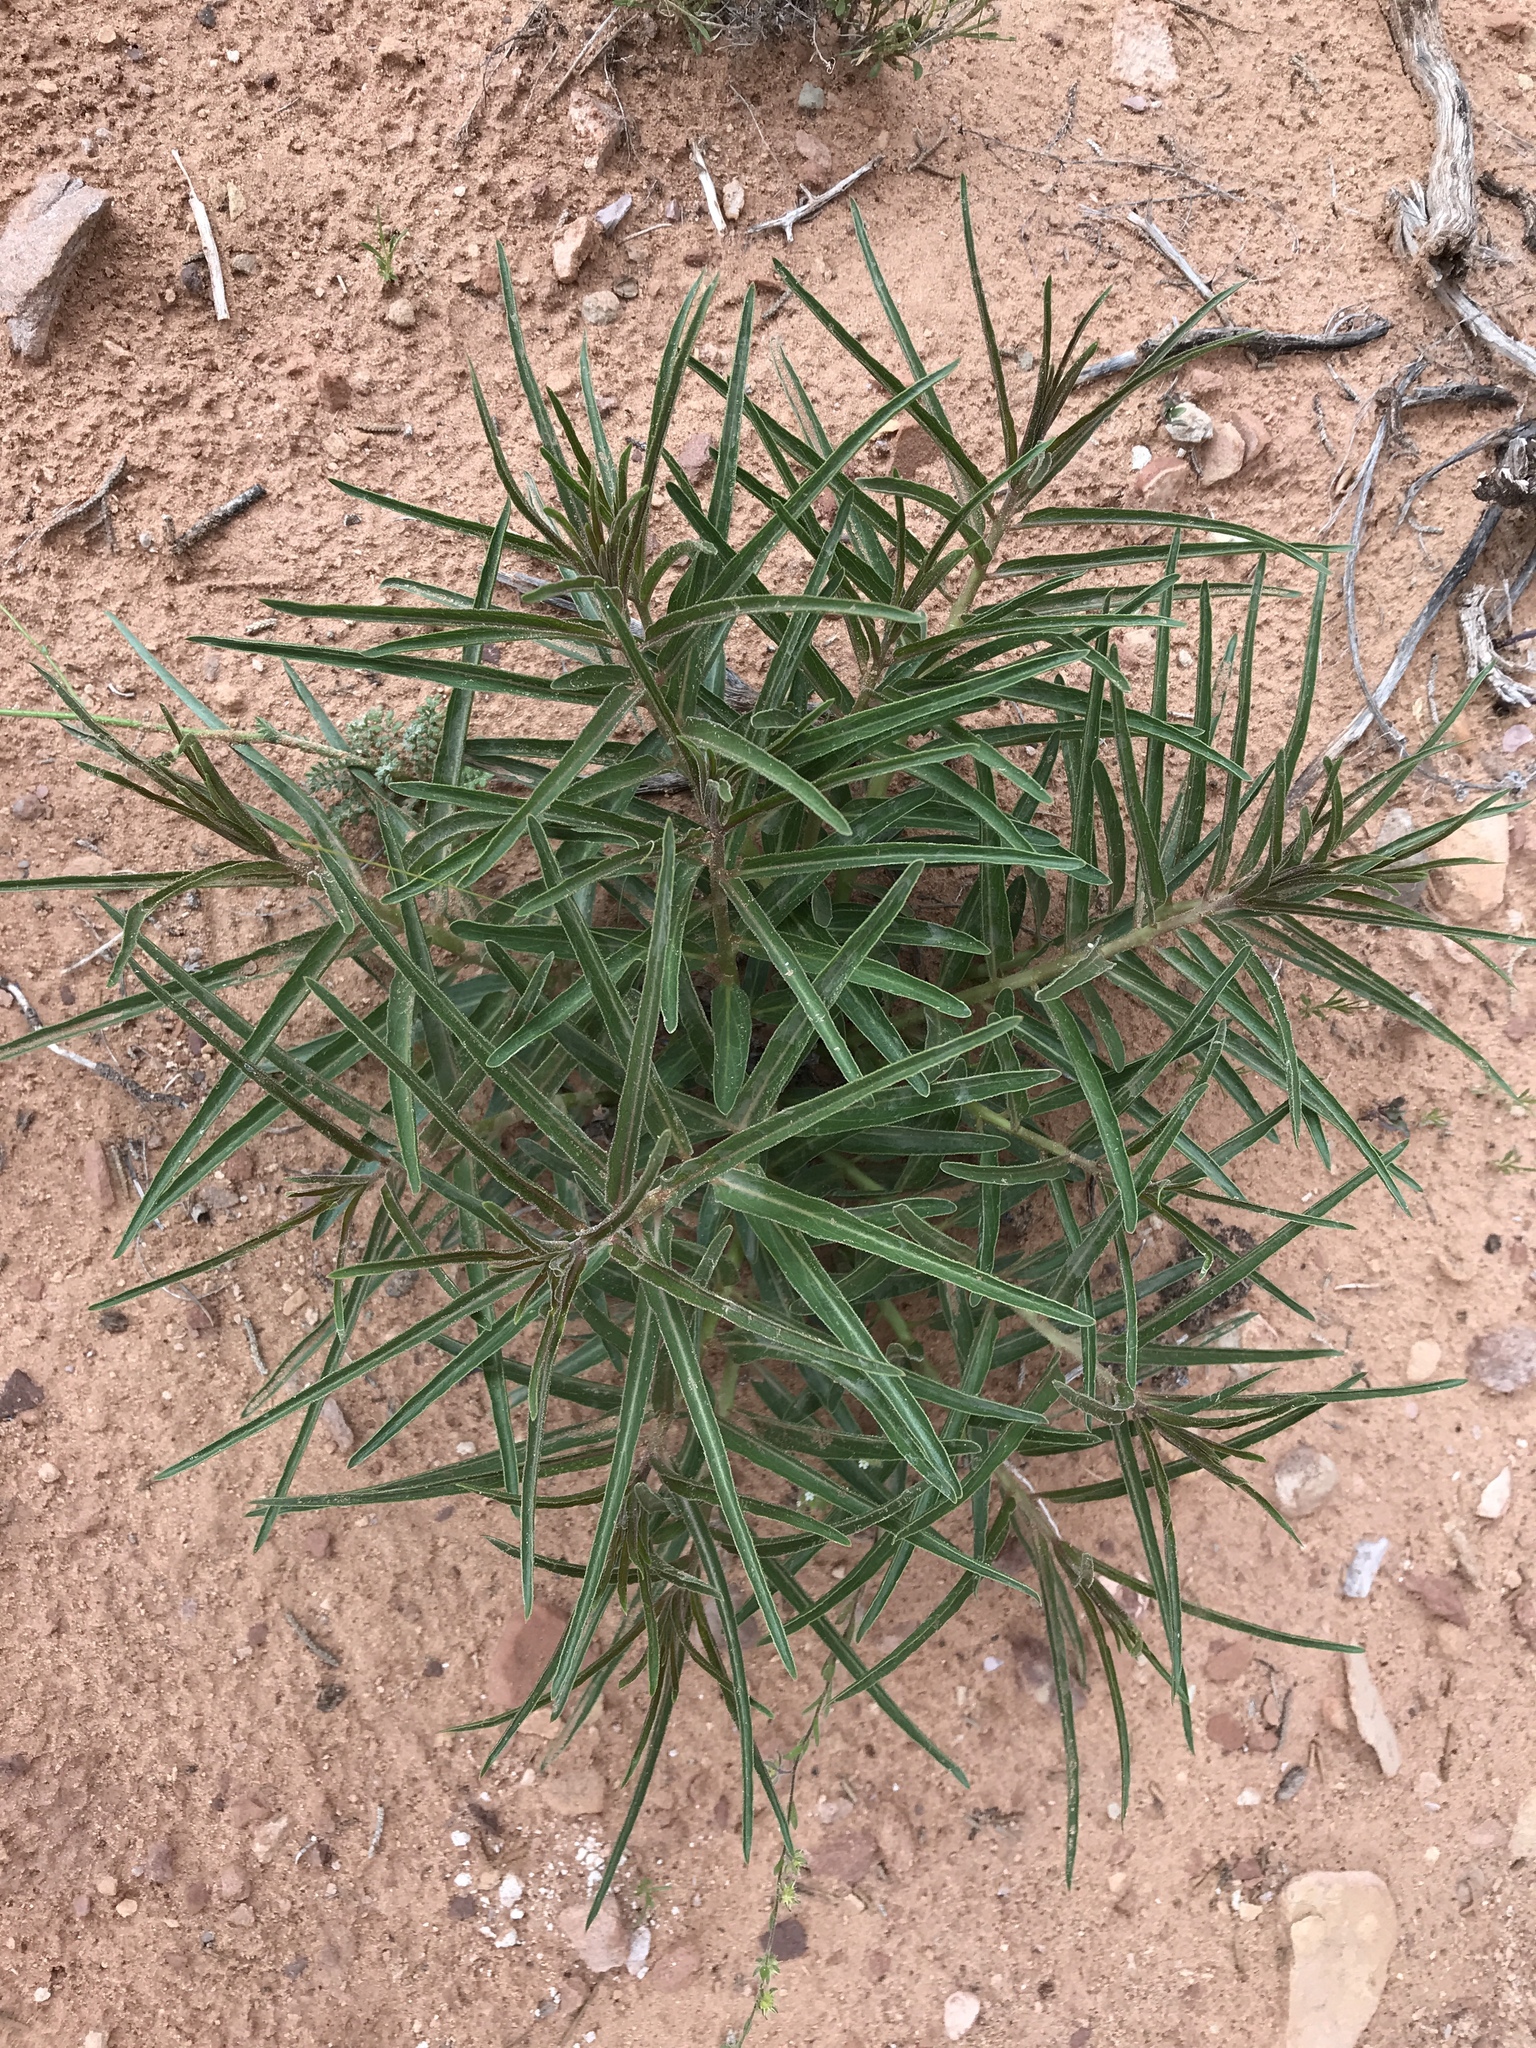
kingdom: Plantae
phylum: Tracheophyta
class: Magnoliopsida
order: Gentianales
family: Apocynaceae
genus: Asclepias
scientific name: Asclepias asperula
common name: Antelope horns
